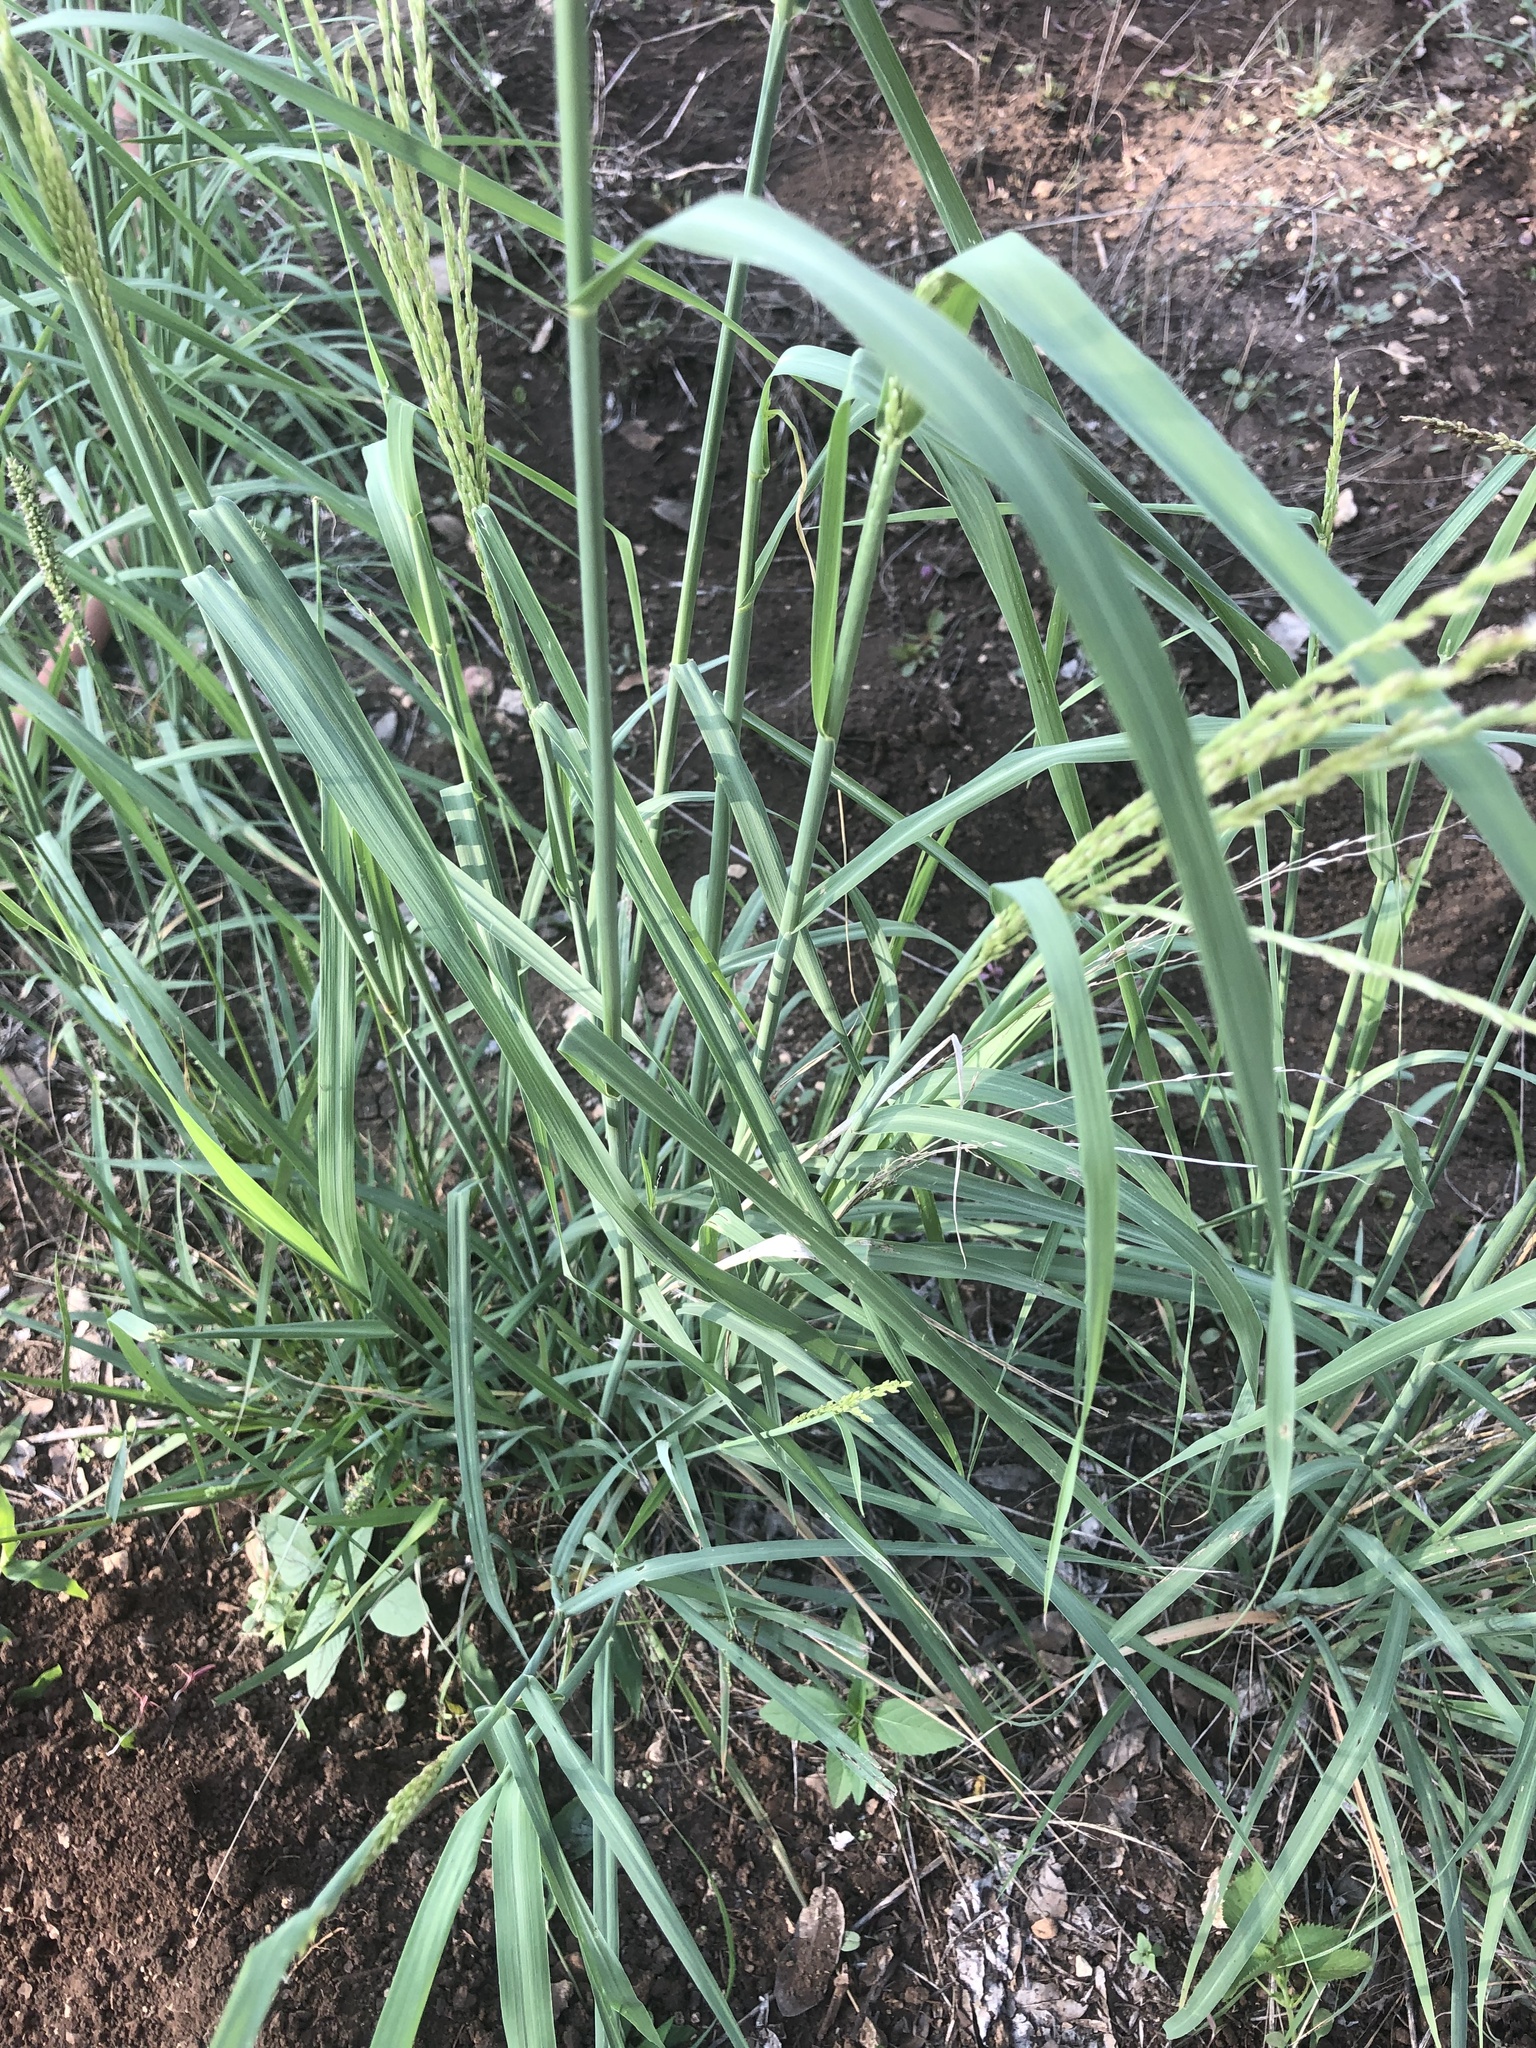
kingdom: Plantae
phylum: Tracheophyta
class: Liliopsida
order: Poales
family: Poaceae
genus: Disakisperma
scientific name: Disakisperma dubium
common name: Green sprangletop
